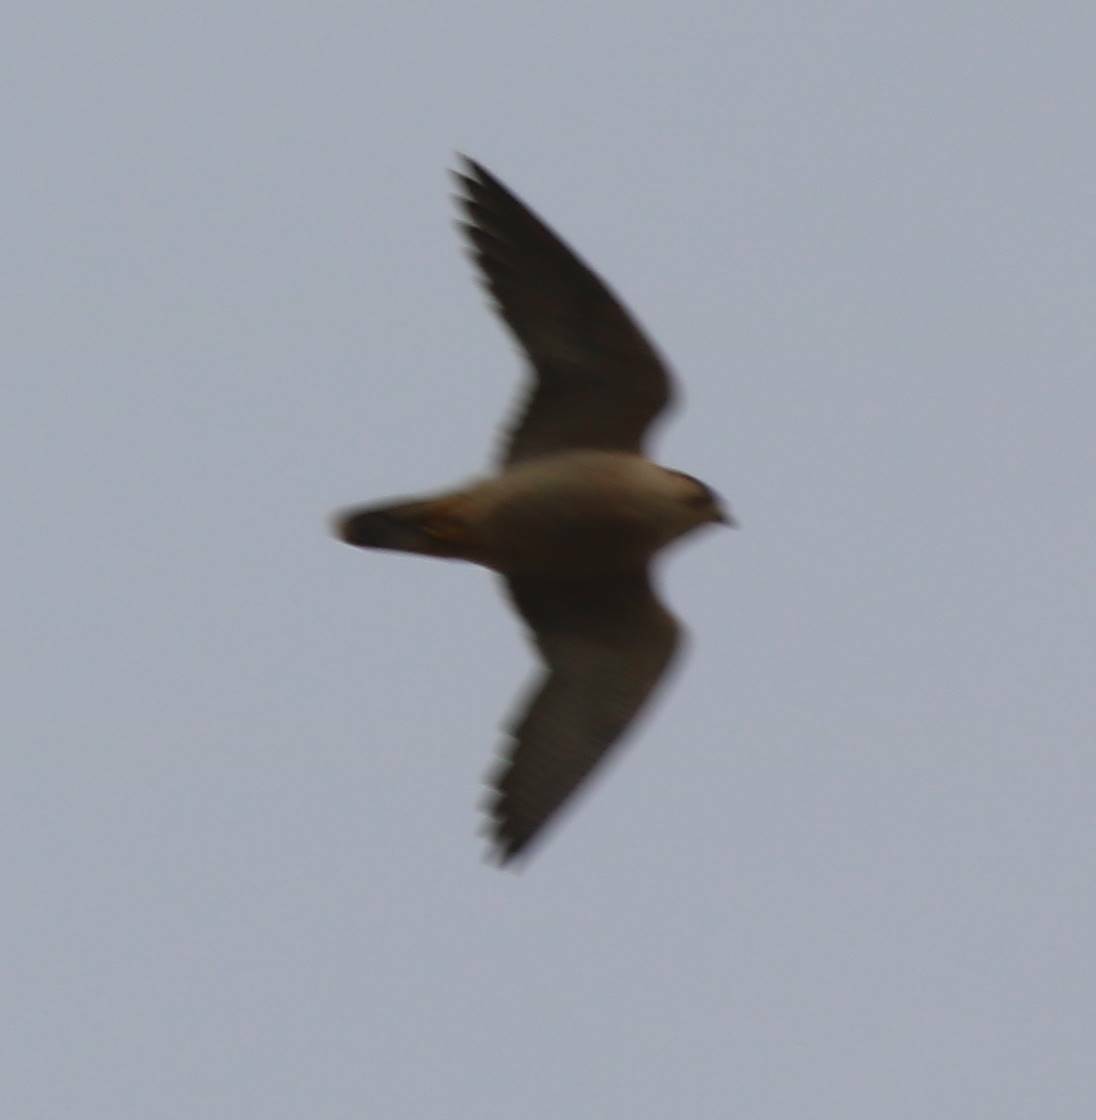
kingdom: Animalia
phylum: Chordata
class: Aves
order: Falconiformes
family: Falconidae
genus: Falco
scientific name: Falco peregrinus
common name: Peregrine falcon
